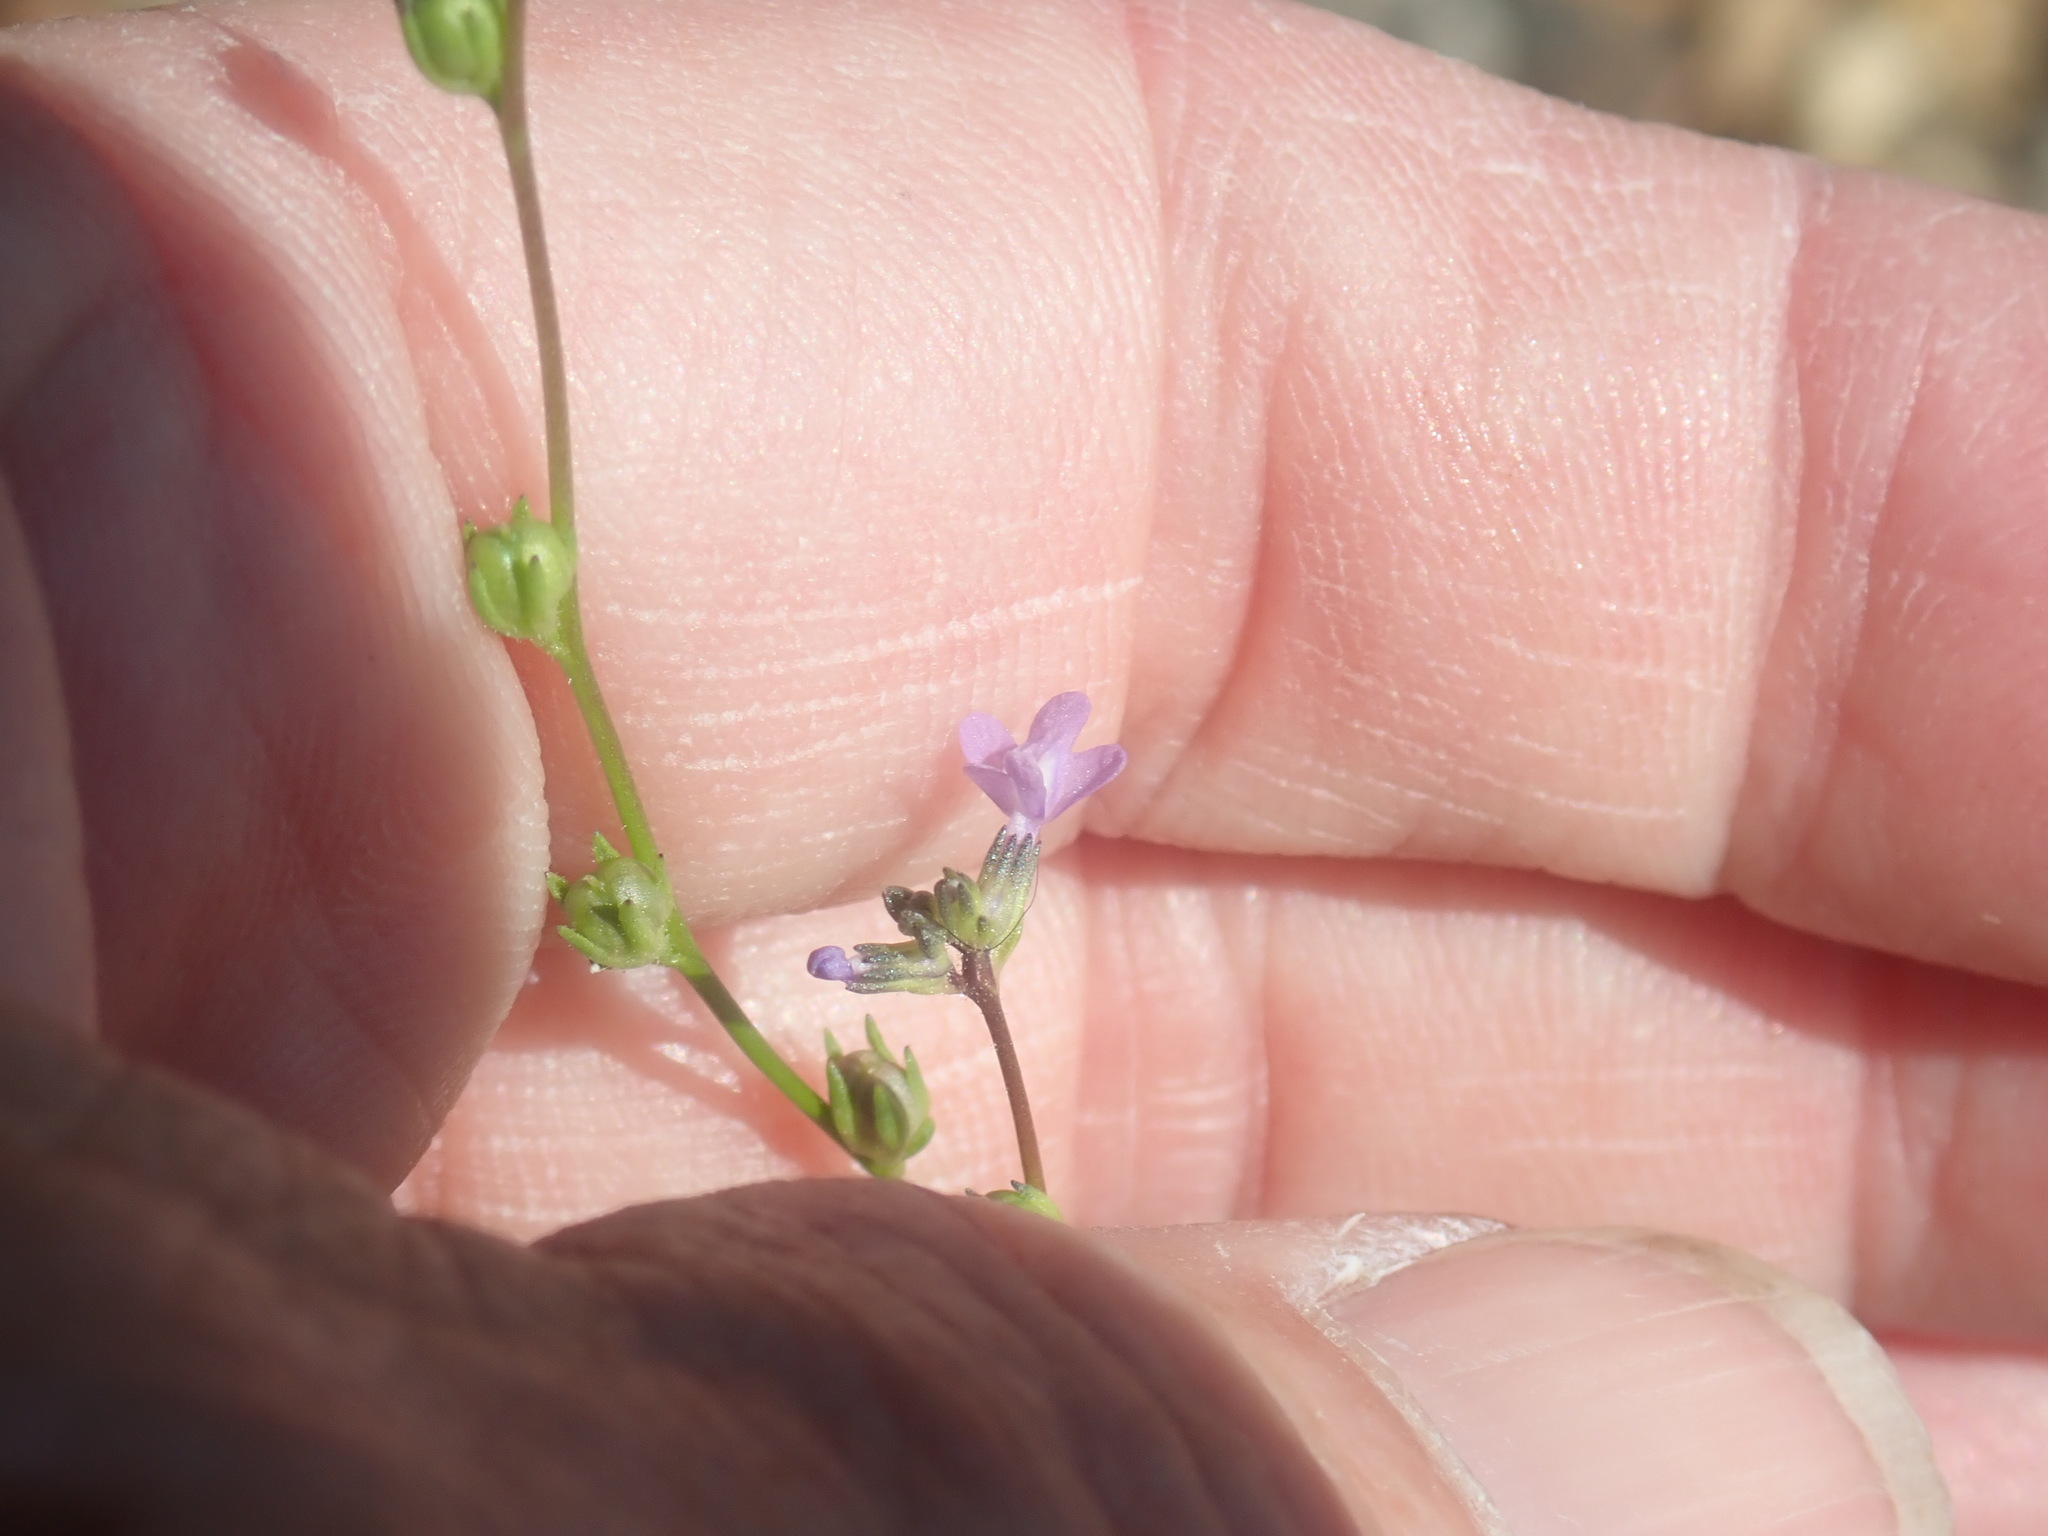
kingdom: Plantae
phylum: Tracheophyta
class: Magnoliopsida
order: Lamiales
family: Plantaginaceae
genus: Nuttallanthus
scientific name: Nuttallanthus canadensis
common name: Blue toadflax
